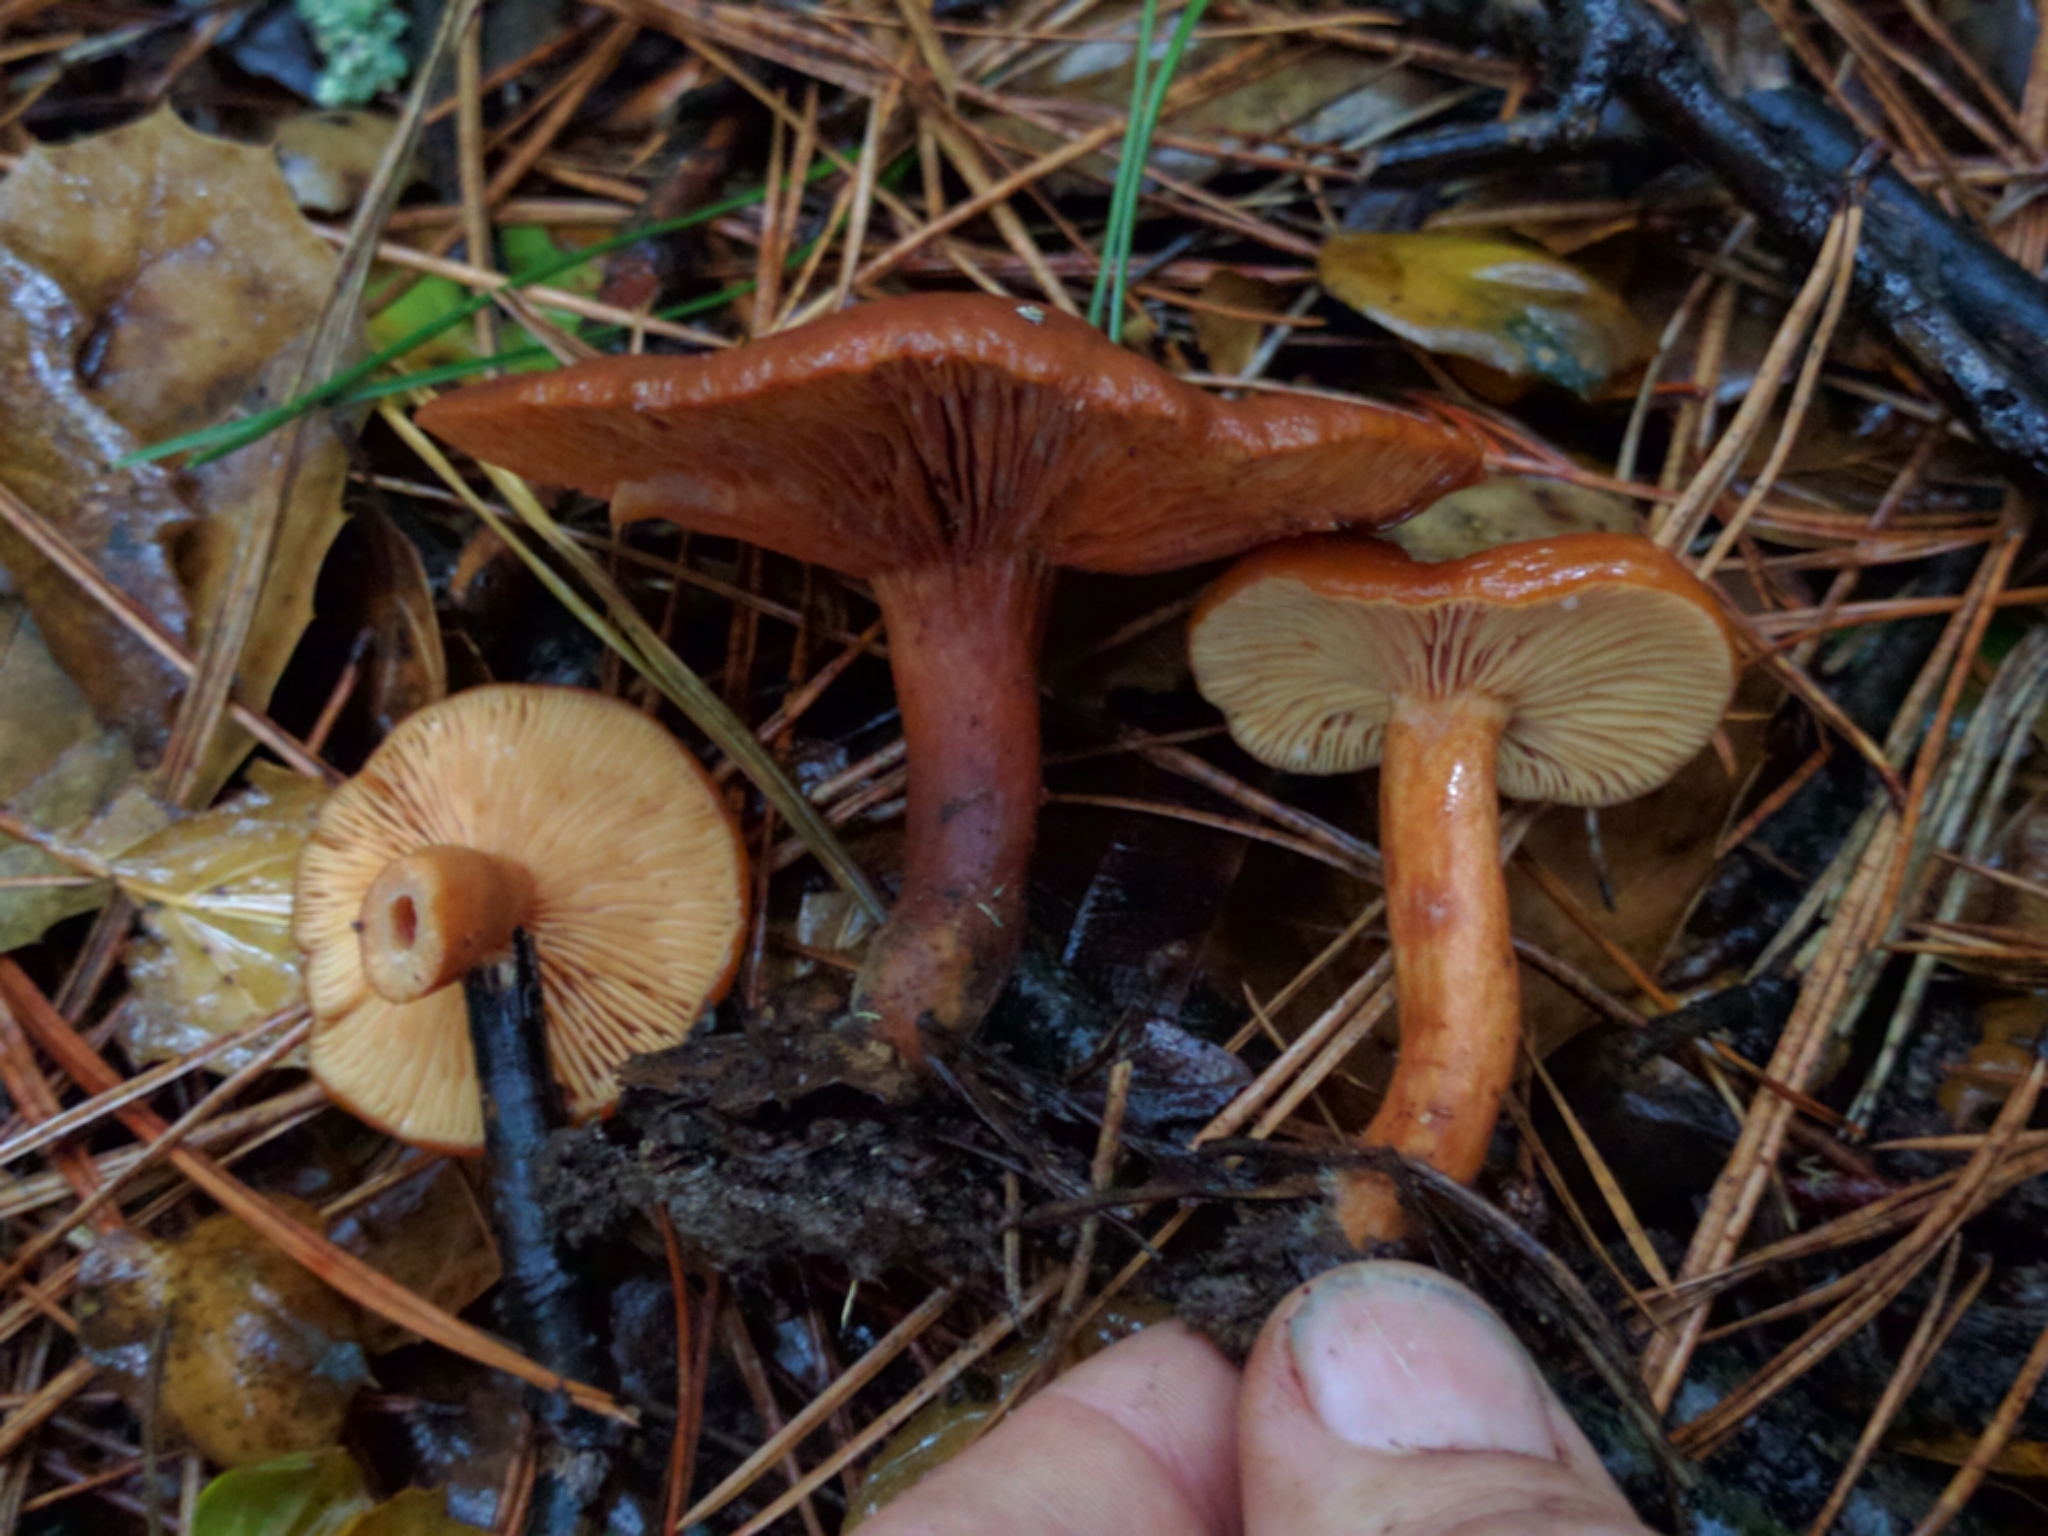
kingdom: Fungi
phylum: Basidiomycota
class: Agaricomycetes
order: Russulales
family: Russulaceae
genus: Lactarius
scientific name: Lactarius rubidus
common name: Candy cap
